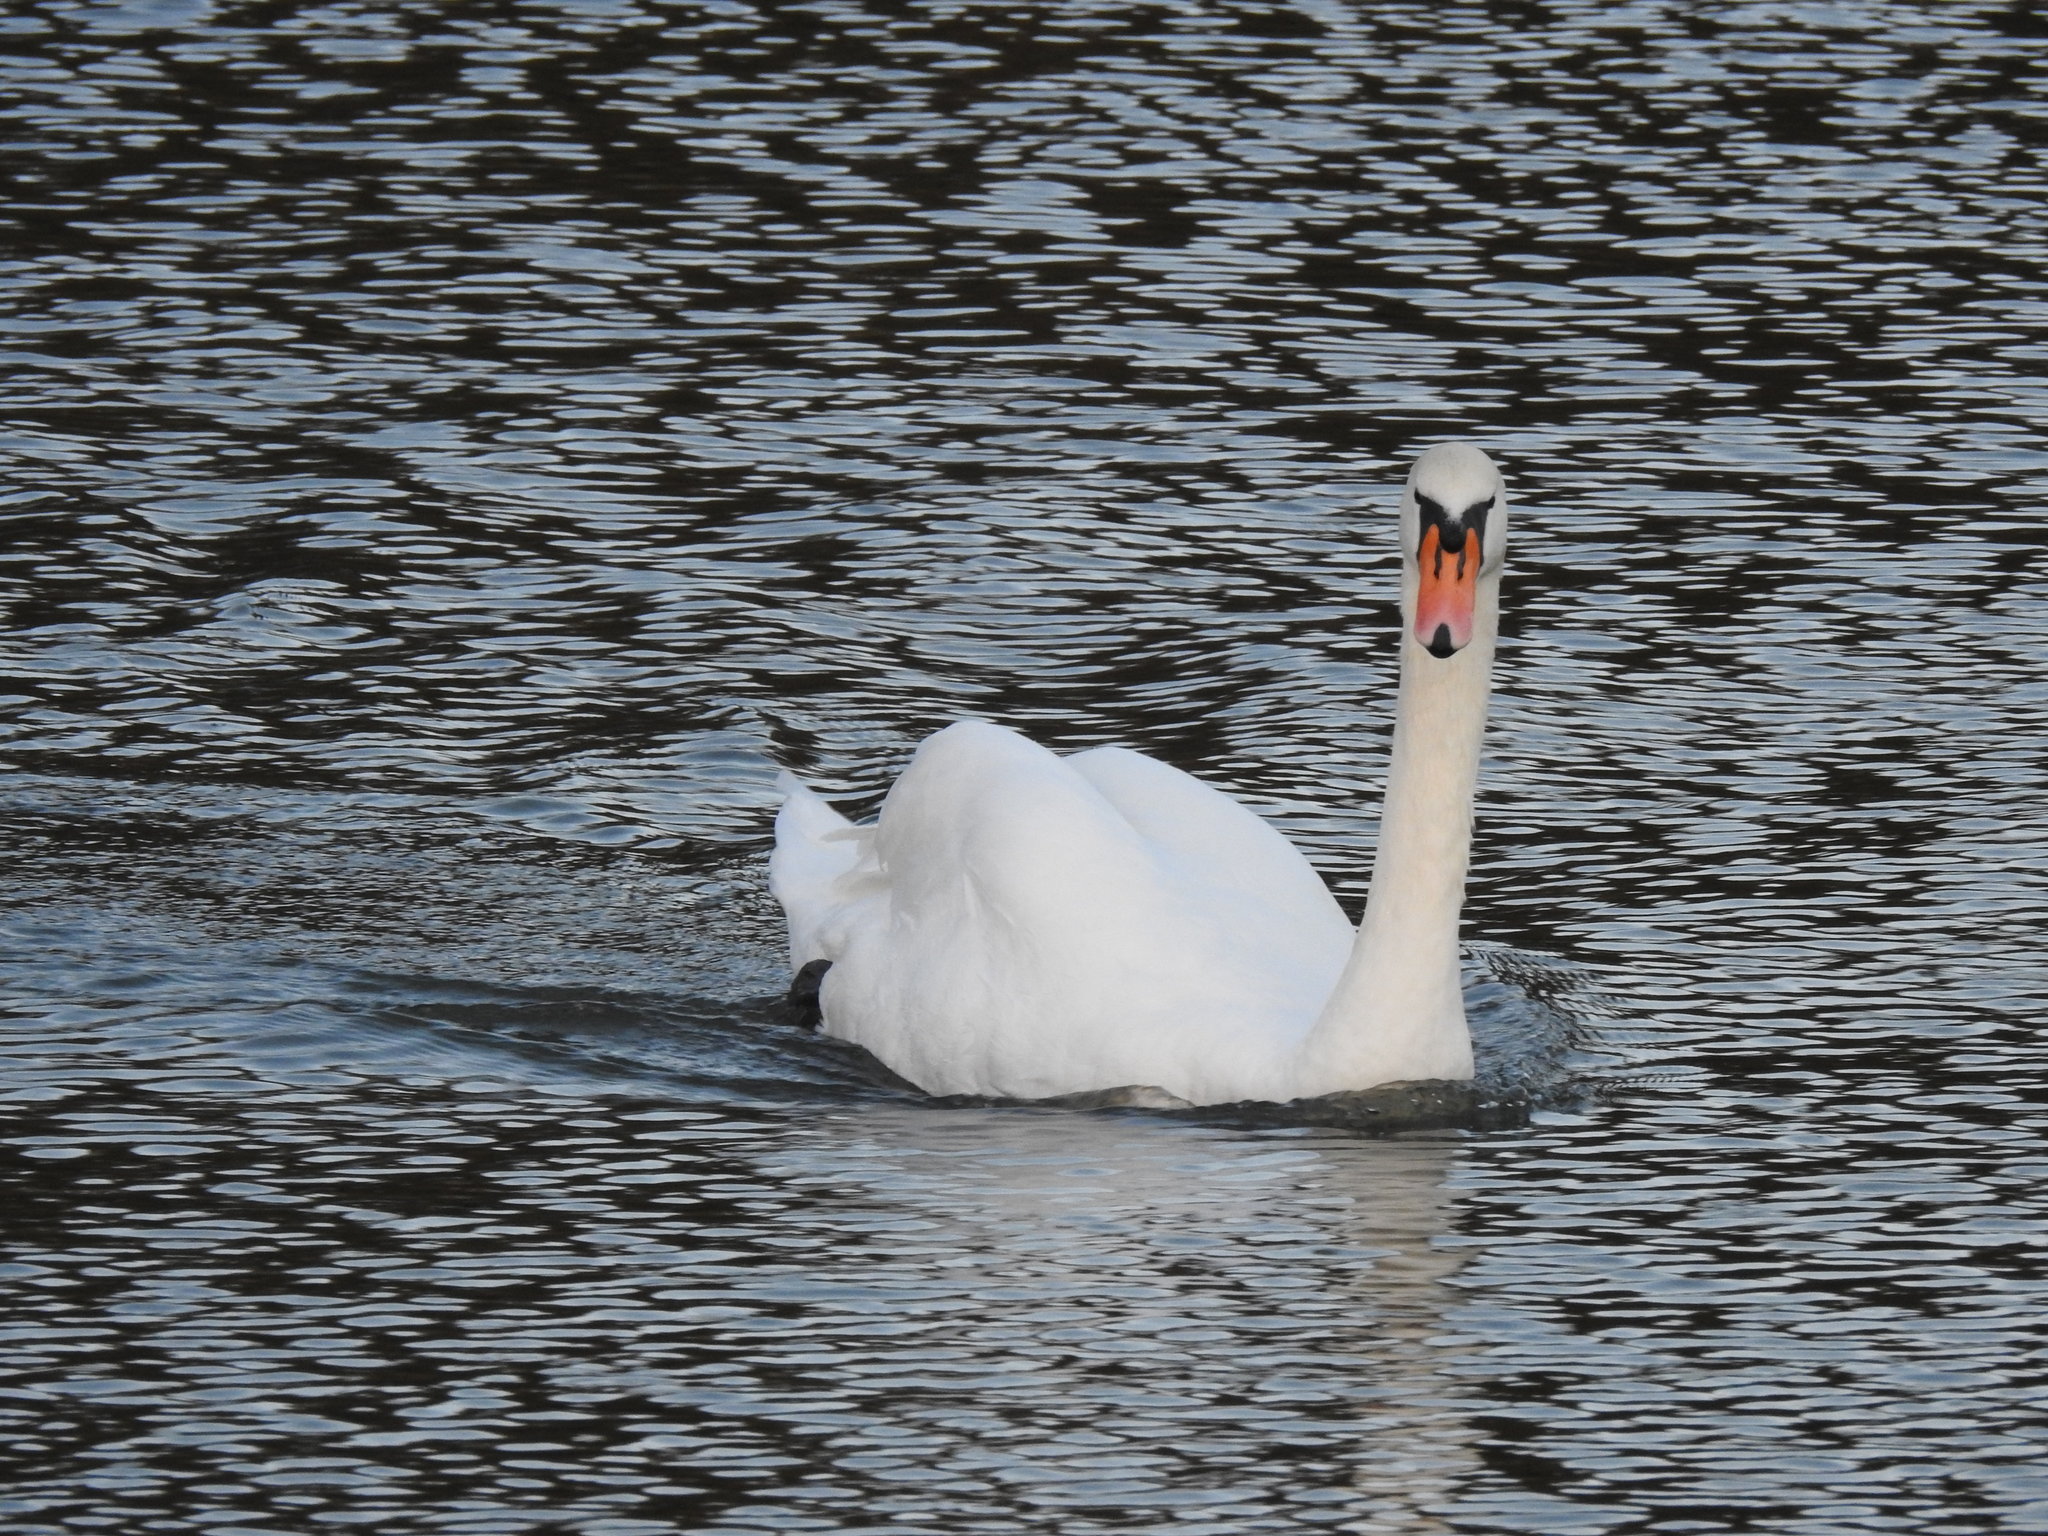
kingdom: Animalia
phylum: Chordata
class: Aves
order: Anseriformes
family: Anatidae
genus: Cygnus
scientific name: Cygnus olor
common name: Mute swan
